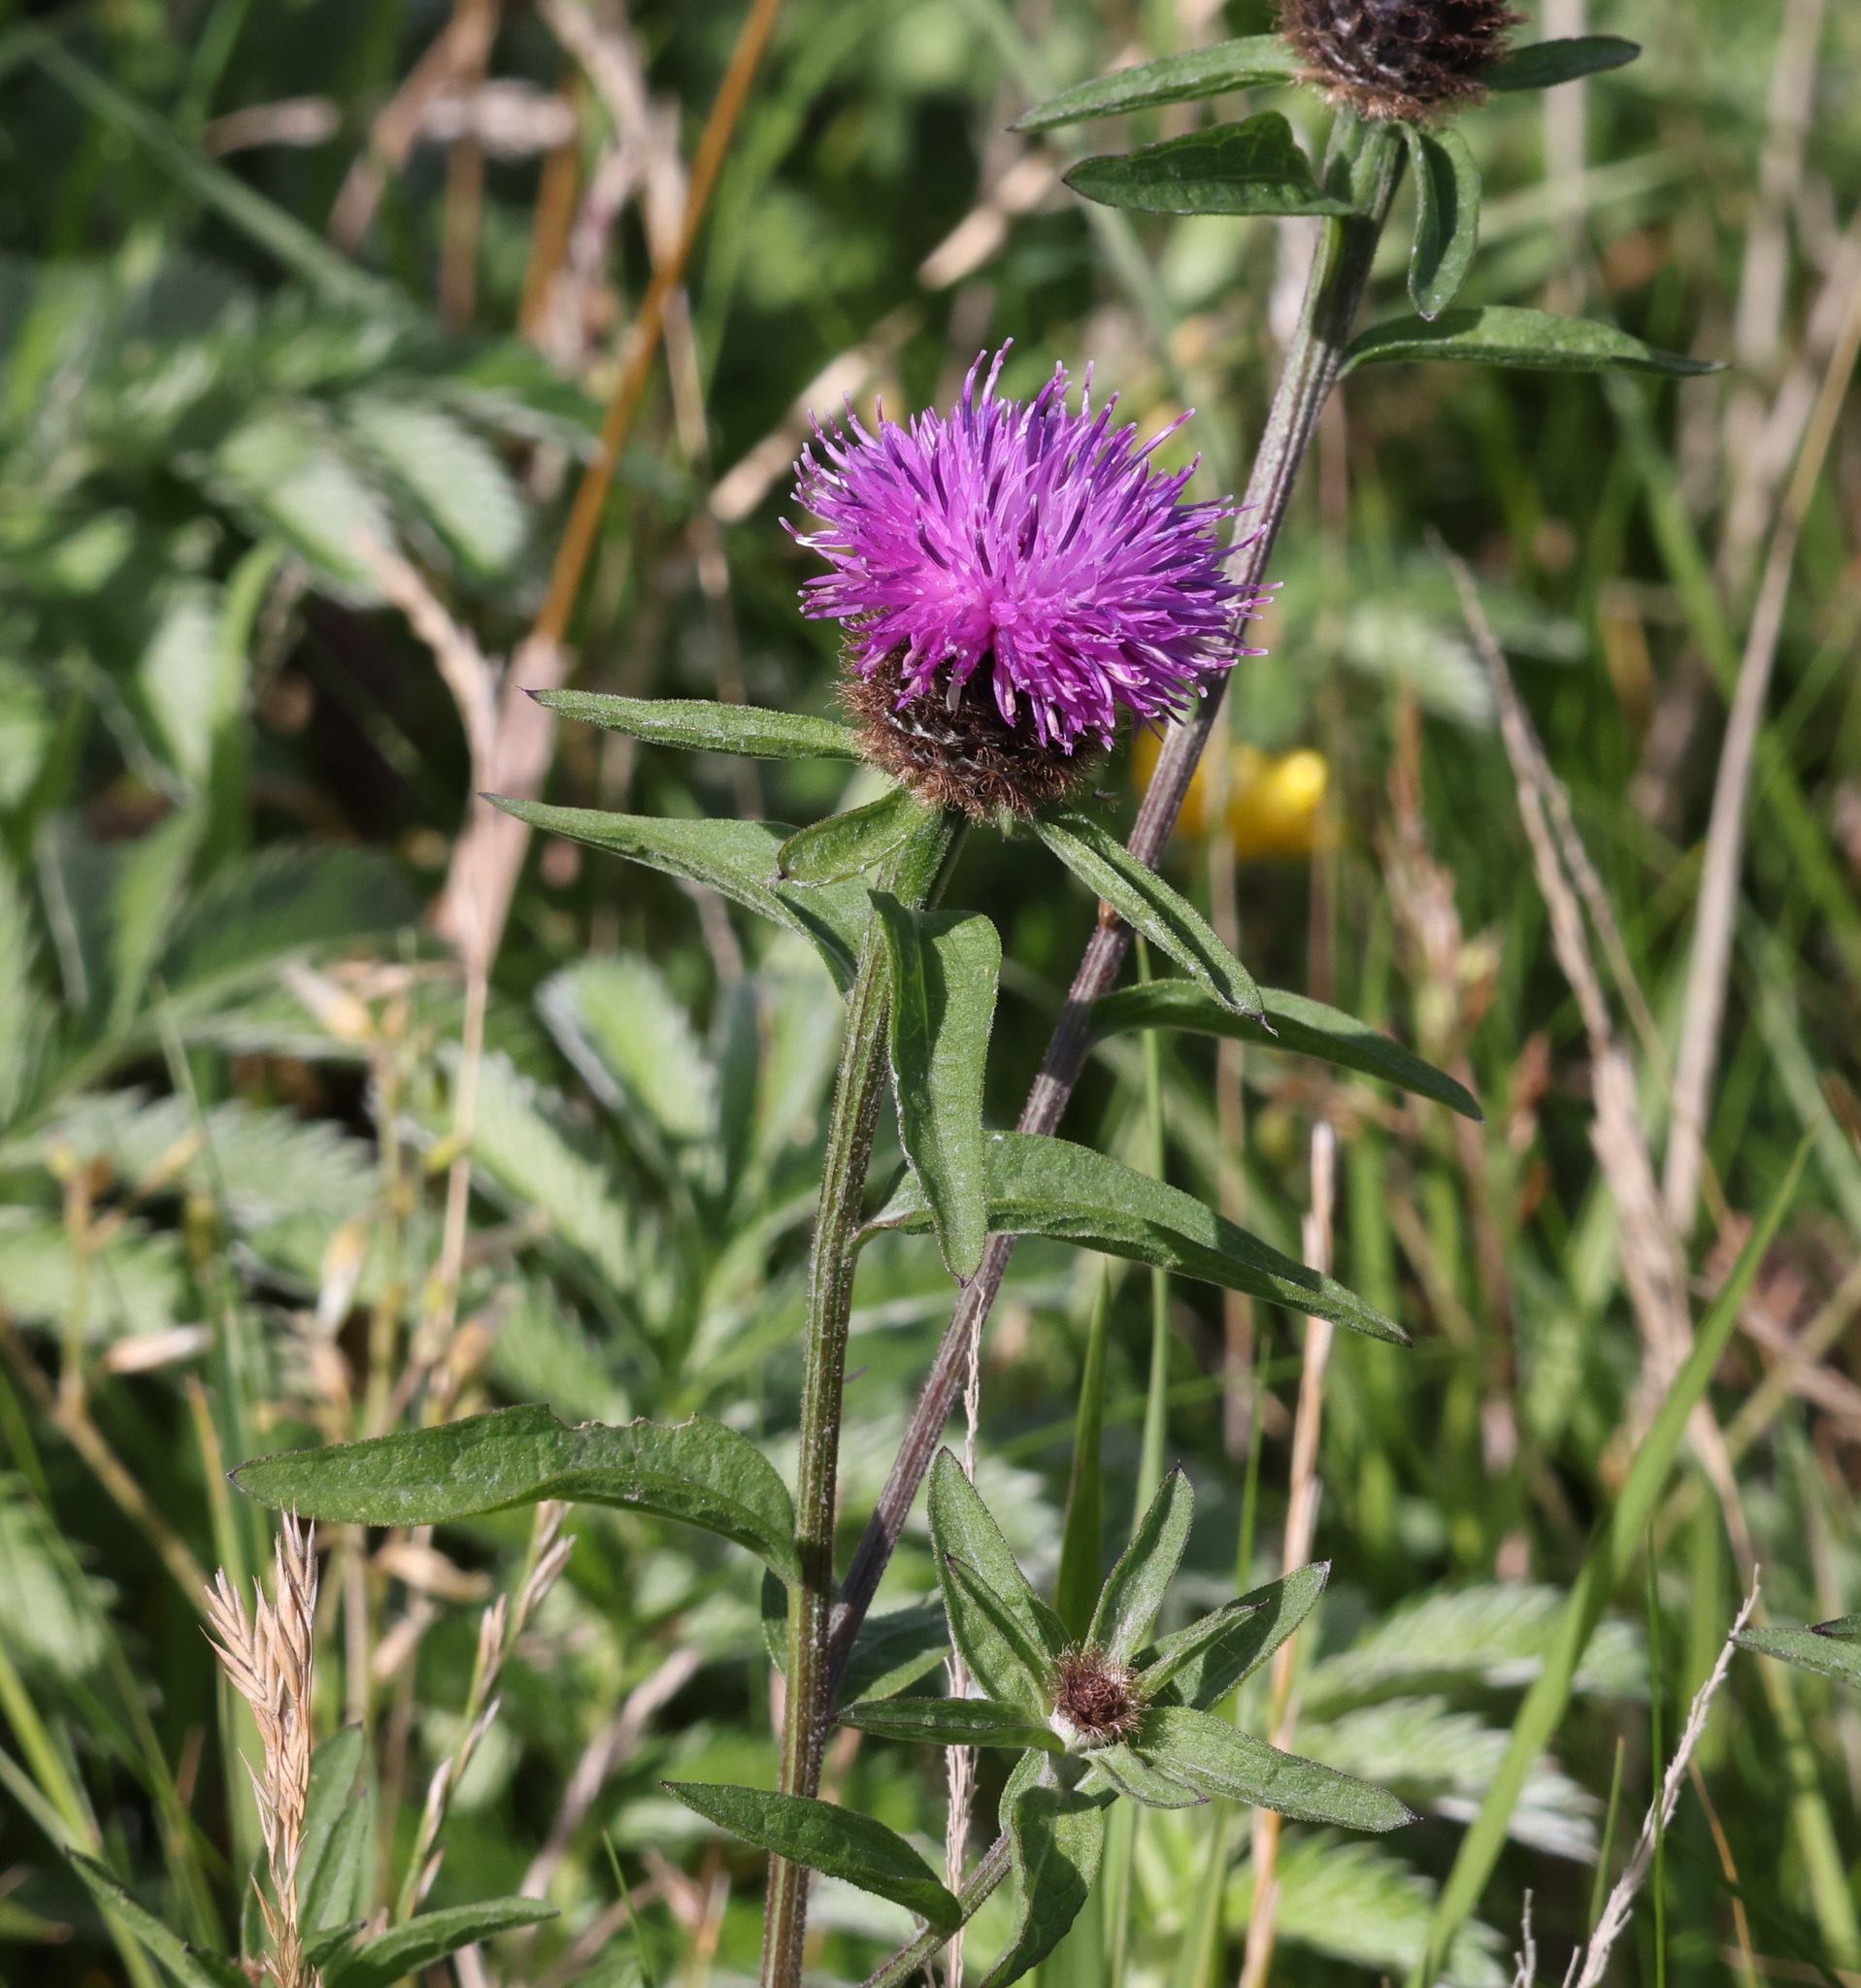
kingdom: Plantae
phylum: Tracheophyta
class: Magnoliopsida
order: Asterales
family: Asteraceae
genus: Centaurea
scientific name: Centaurea nigra
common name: Lesser knapweed
